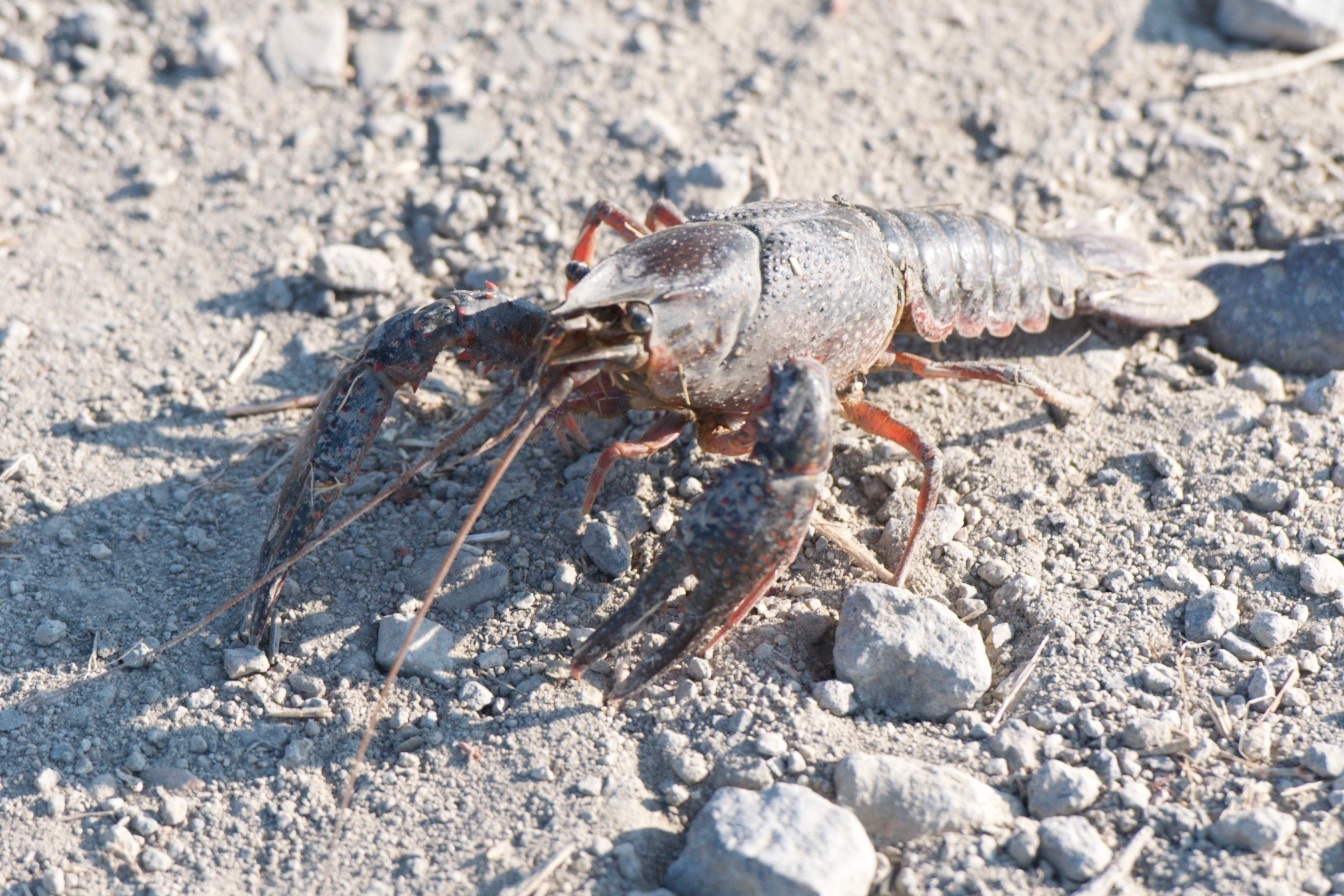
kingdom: Animalia
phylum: Arthropoda
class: Malacostraca
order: Decapoda
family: Cambaridae
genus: Procambarus
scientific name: Procambarus clarkii
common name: Red swamp crayfish
